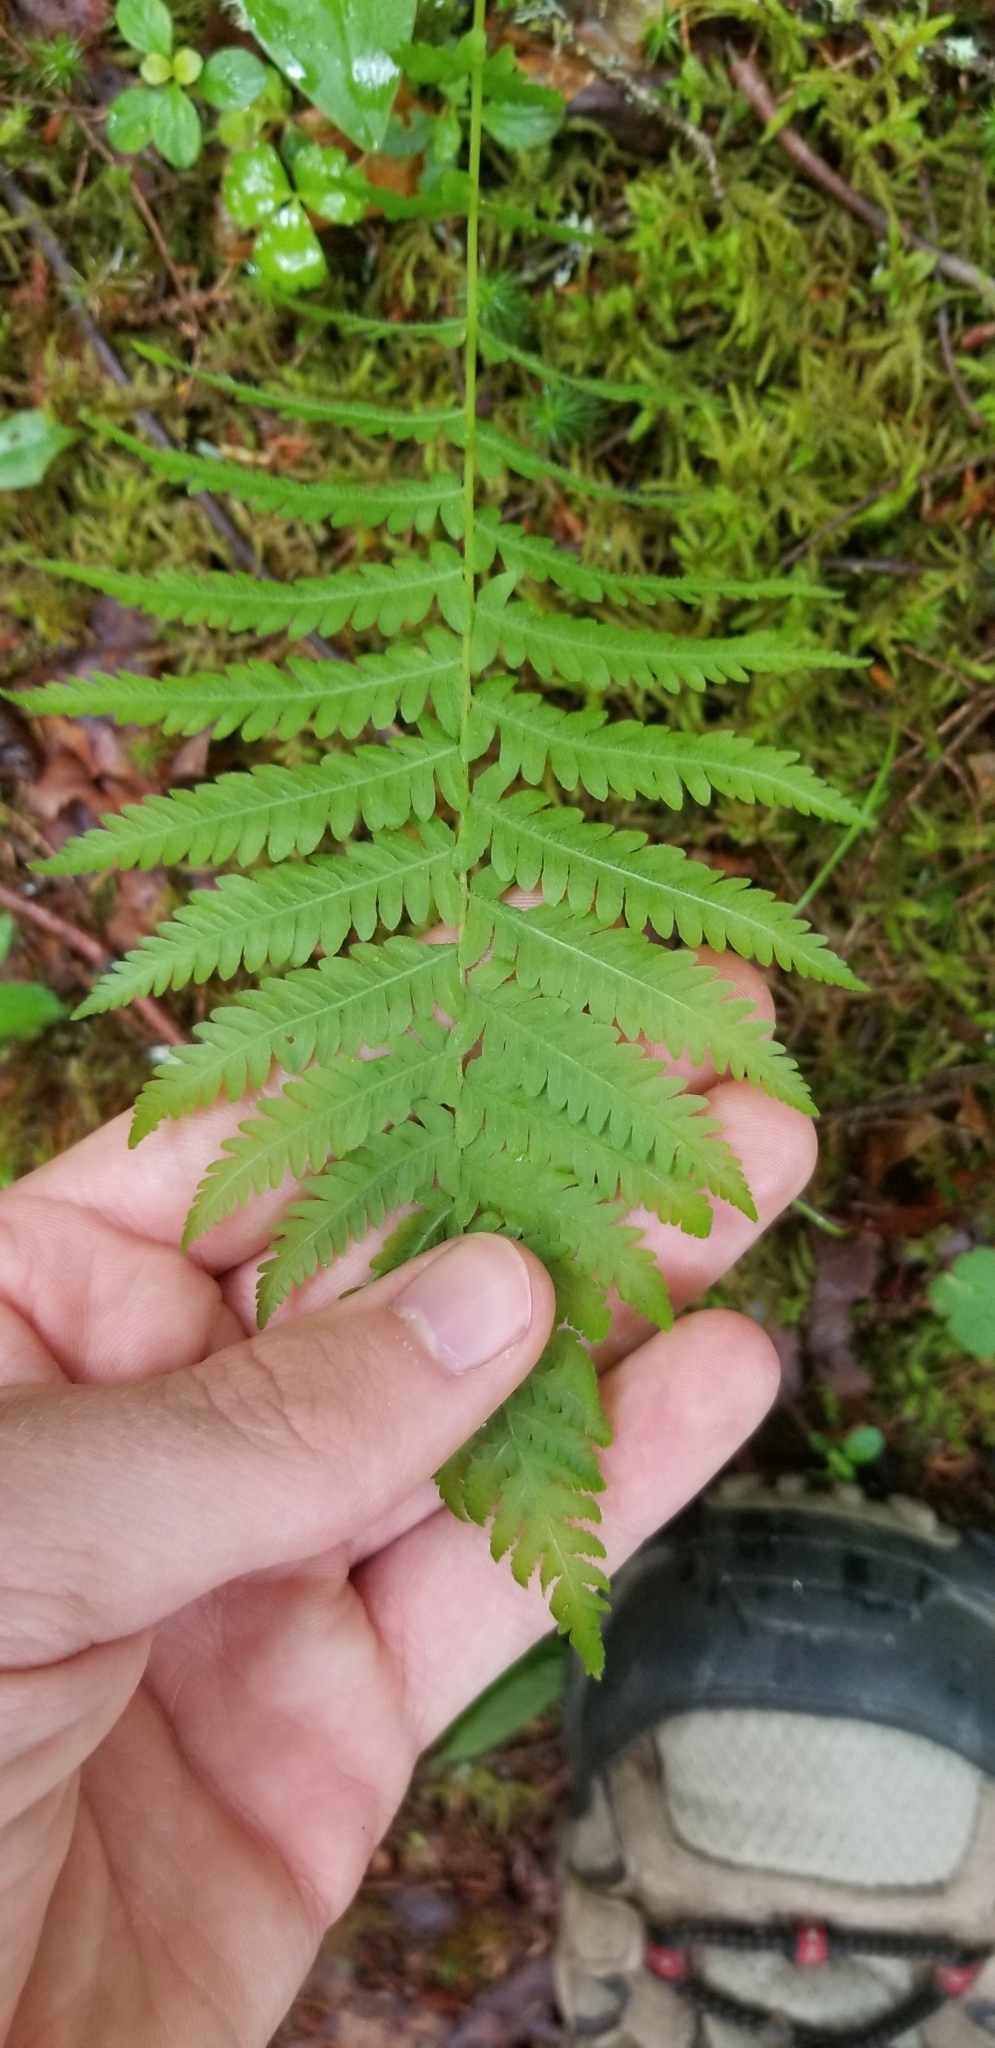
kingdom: Plantae
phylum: Tracheophyta
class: Polypodiopsida
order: Polypodiales
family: Thelypteridaceae
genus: Amauropelta
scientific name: Amauropelta noveboracensis
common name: New york fern
